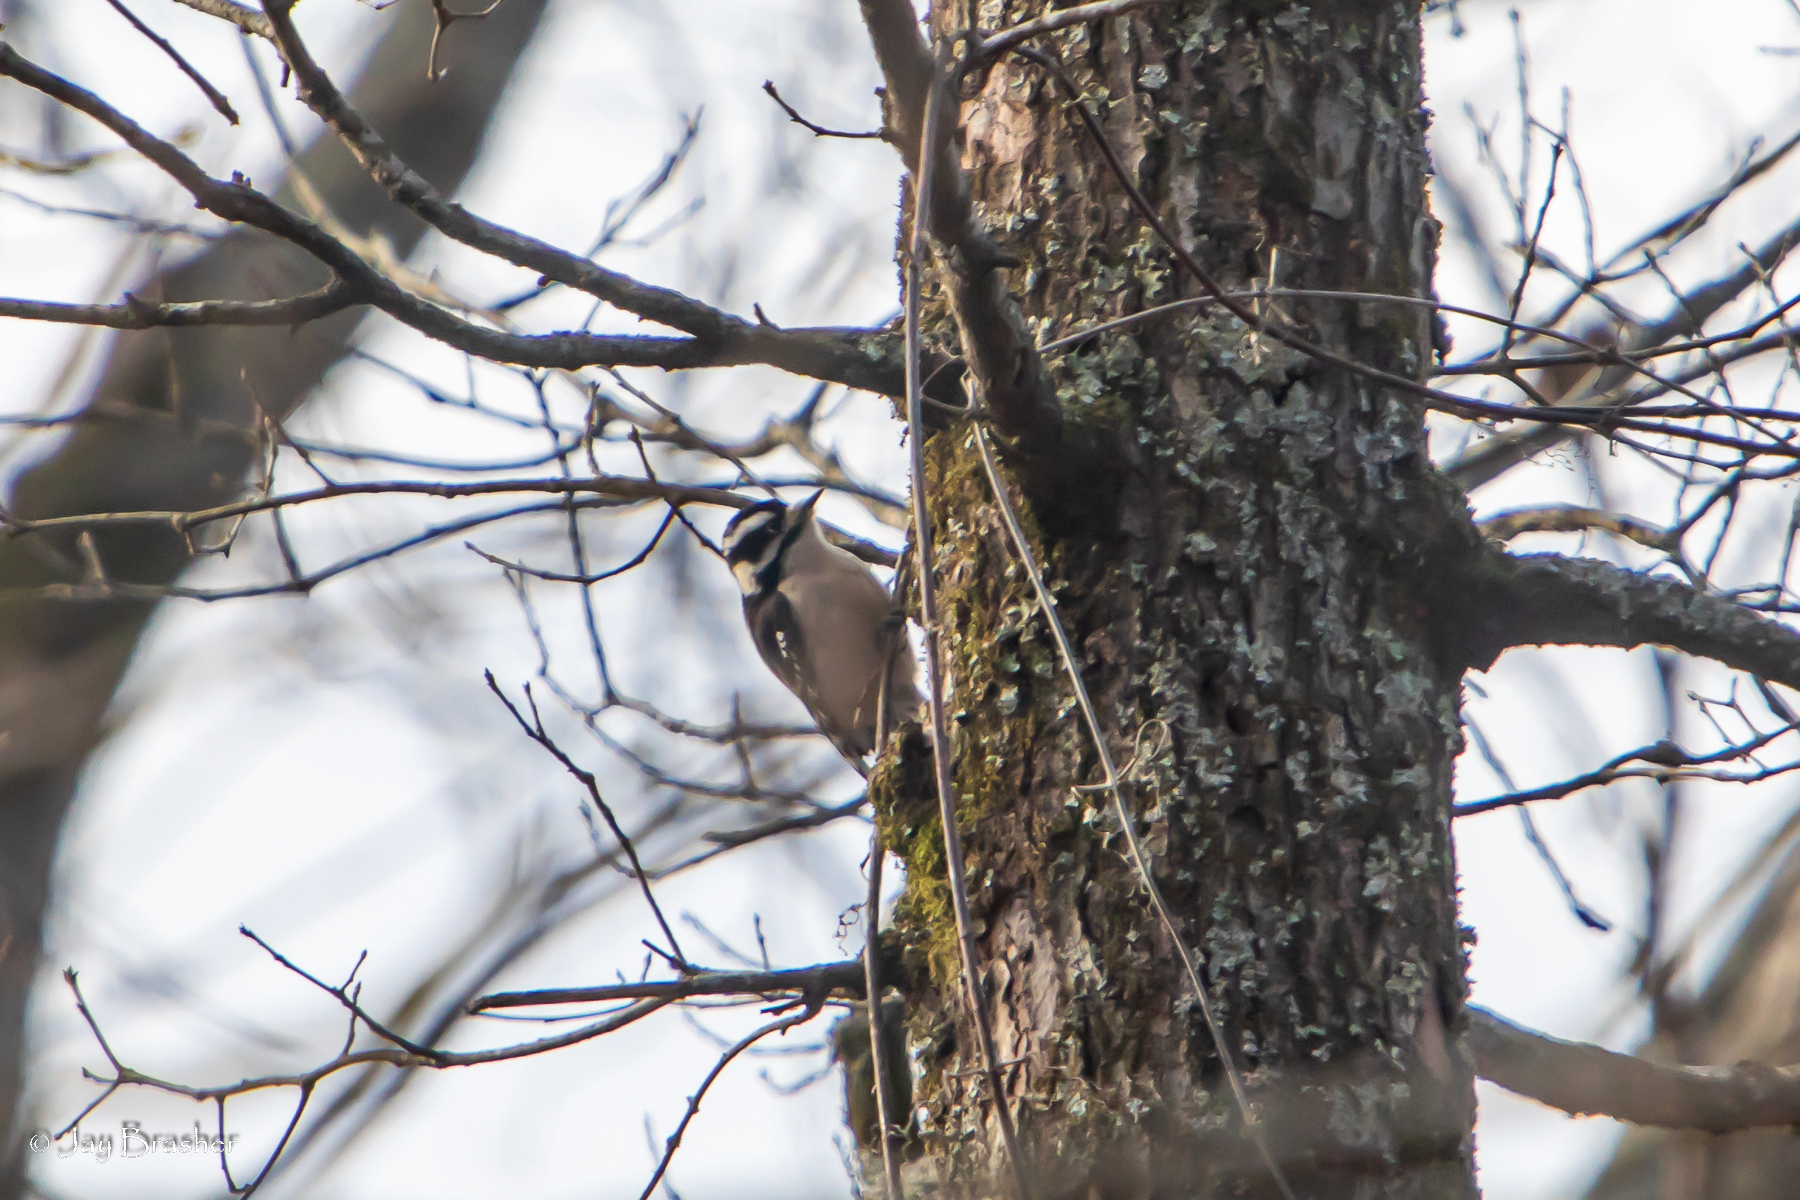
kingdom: Animalia
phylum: Chordata
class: Aves
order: Piciformes
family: Picidae
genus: Dryobates
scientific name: Dryobates pubescens
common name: Downy woodpecker
